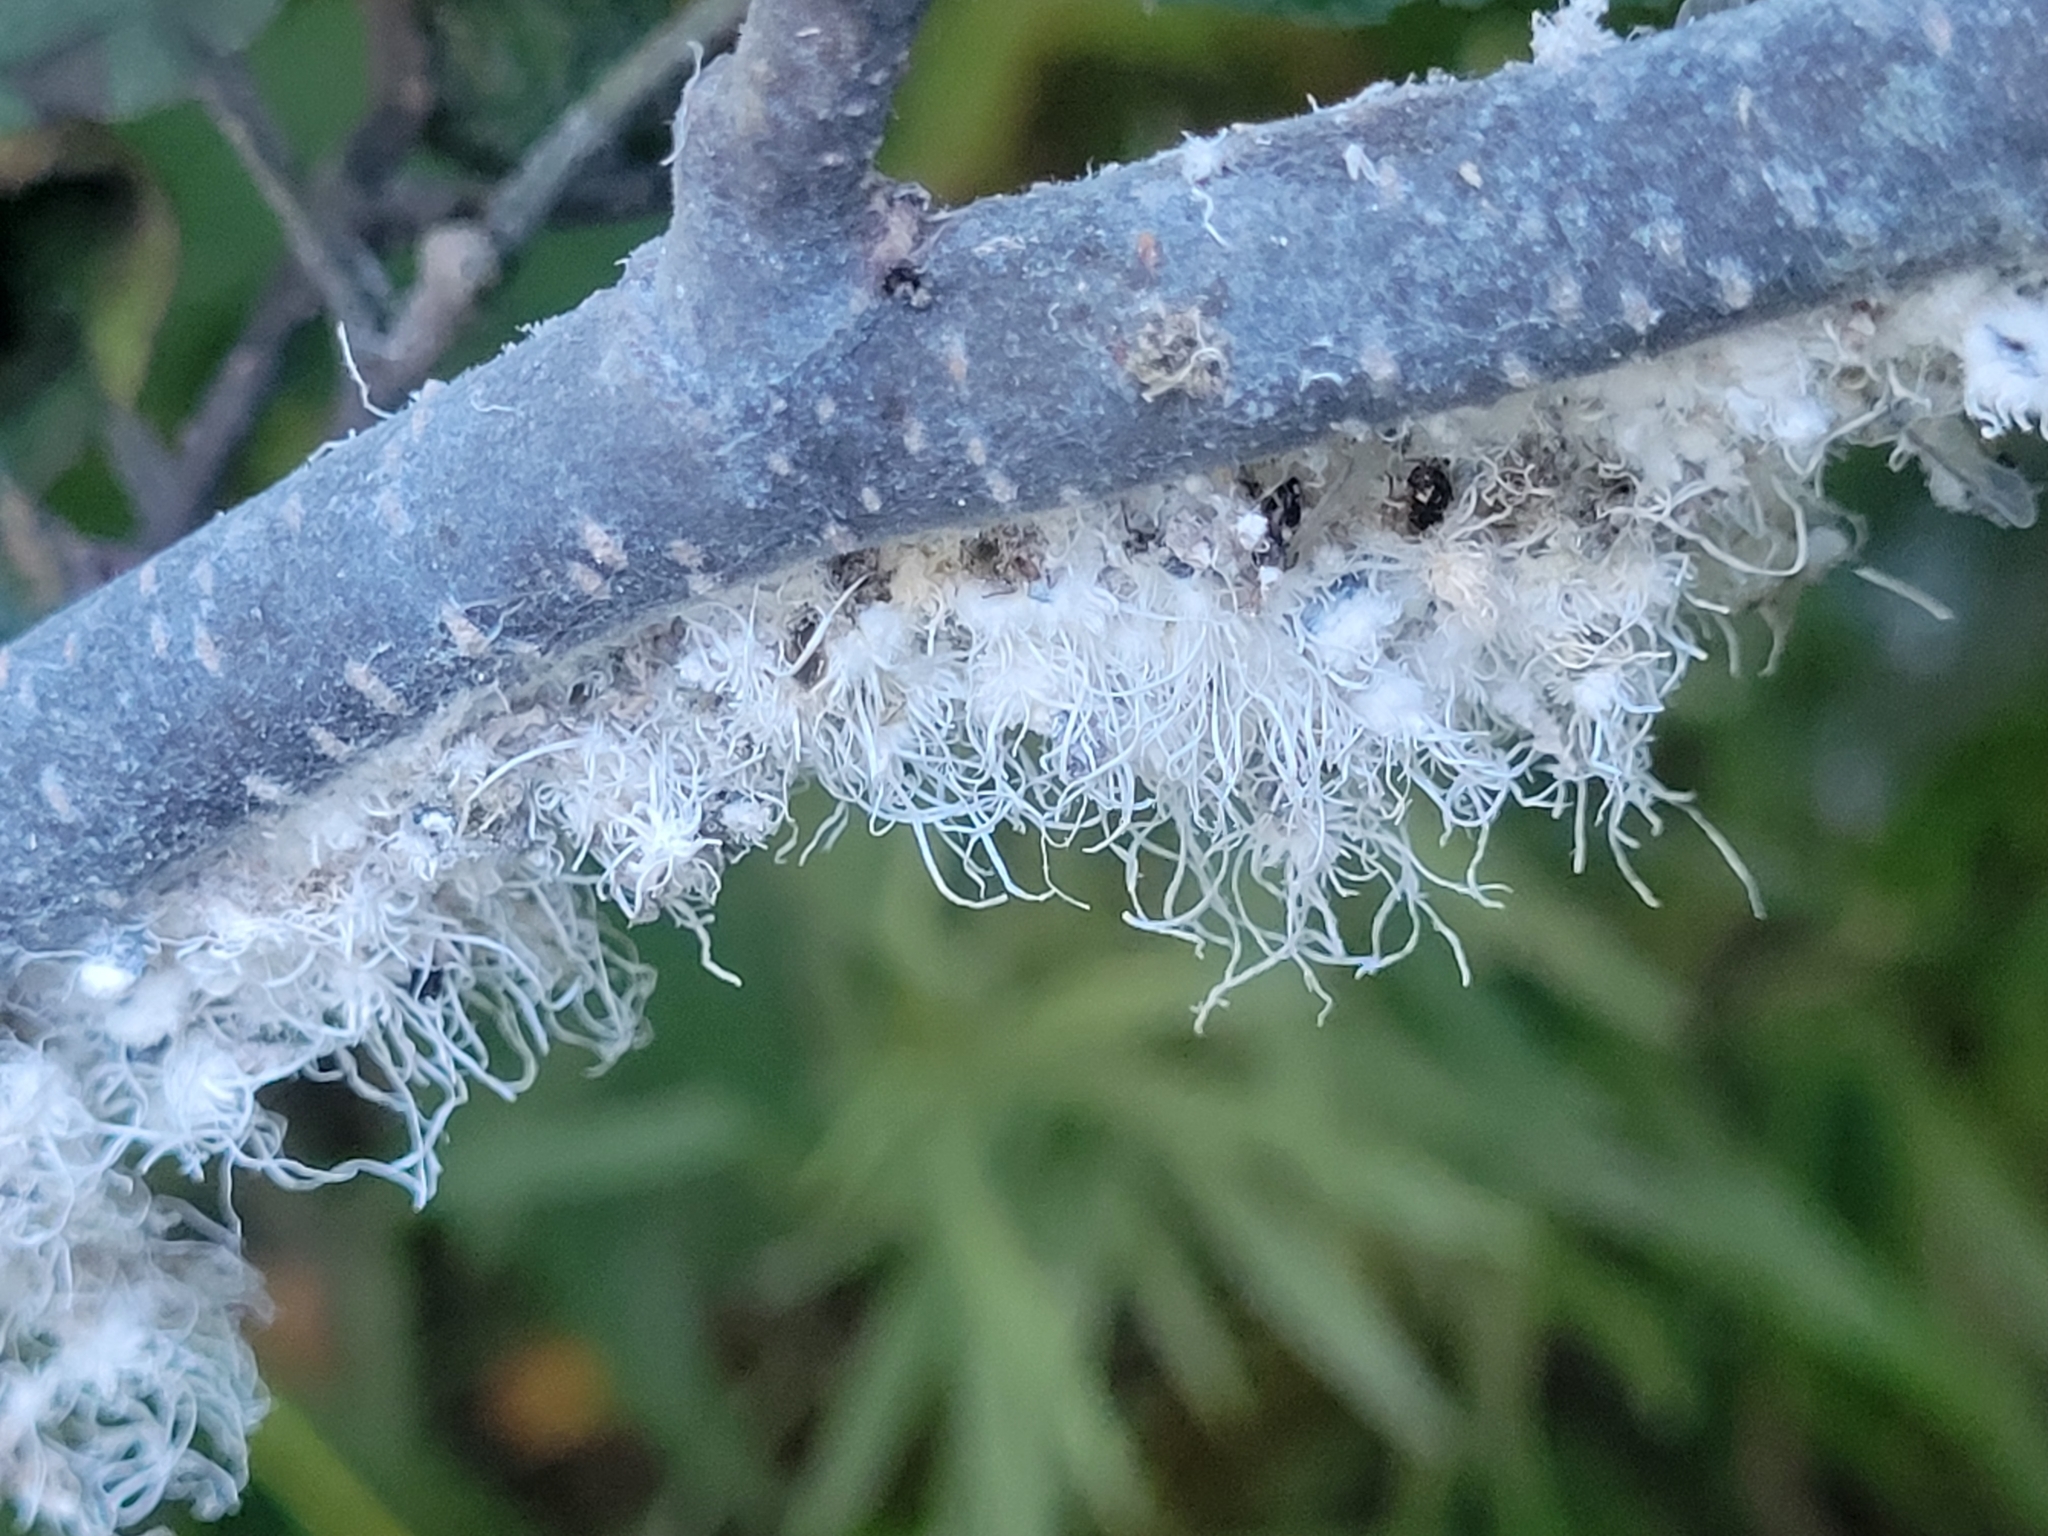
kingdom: Animalia
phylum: Arthropoda
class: Insecta
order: Hemiptera
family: Aphididae
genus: Prociphilus
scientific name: Prociphilus tessellatus
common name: Woolly alder aphid
